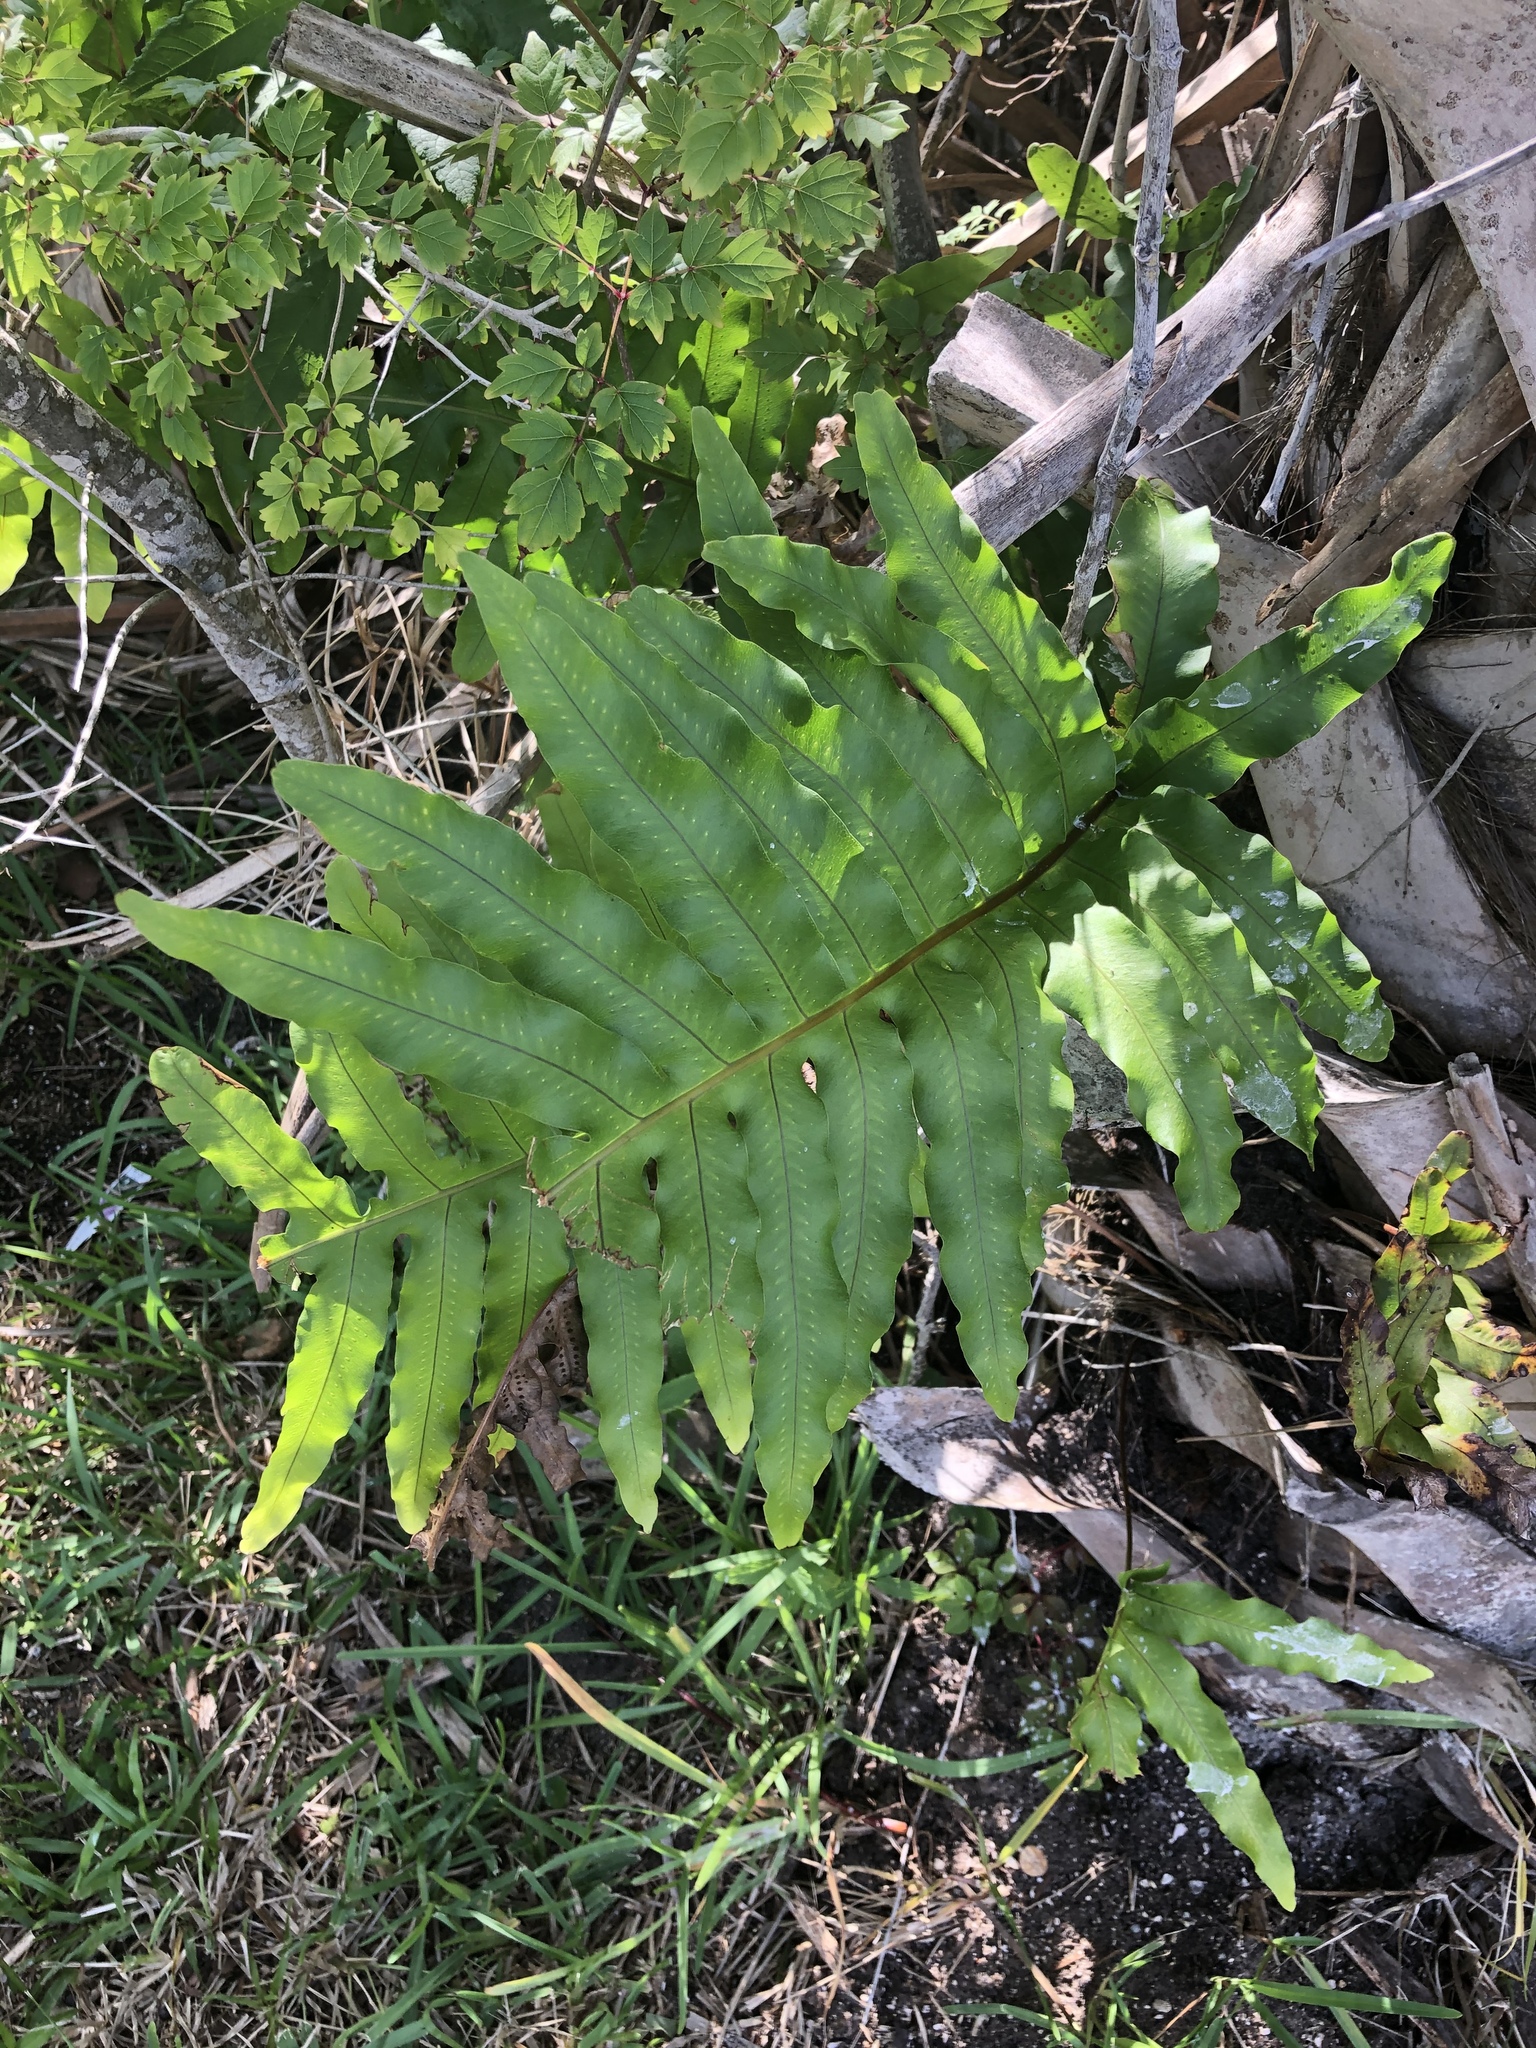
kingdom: Plantae
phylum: Tracheophyta
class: Polypodiopsida
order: Polypodiales
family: Polypodiaceae
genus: Phlebodium
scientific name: Phlebodium aureum
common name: Gold-foot fern
